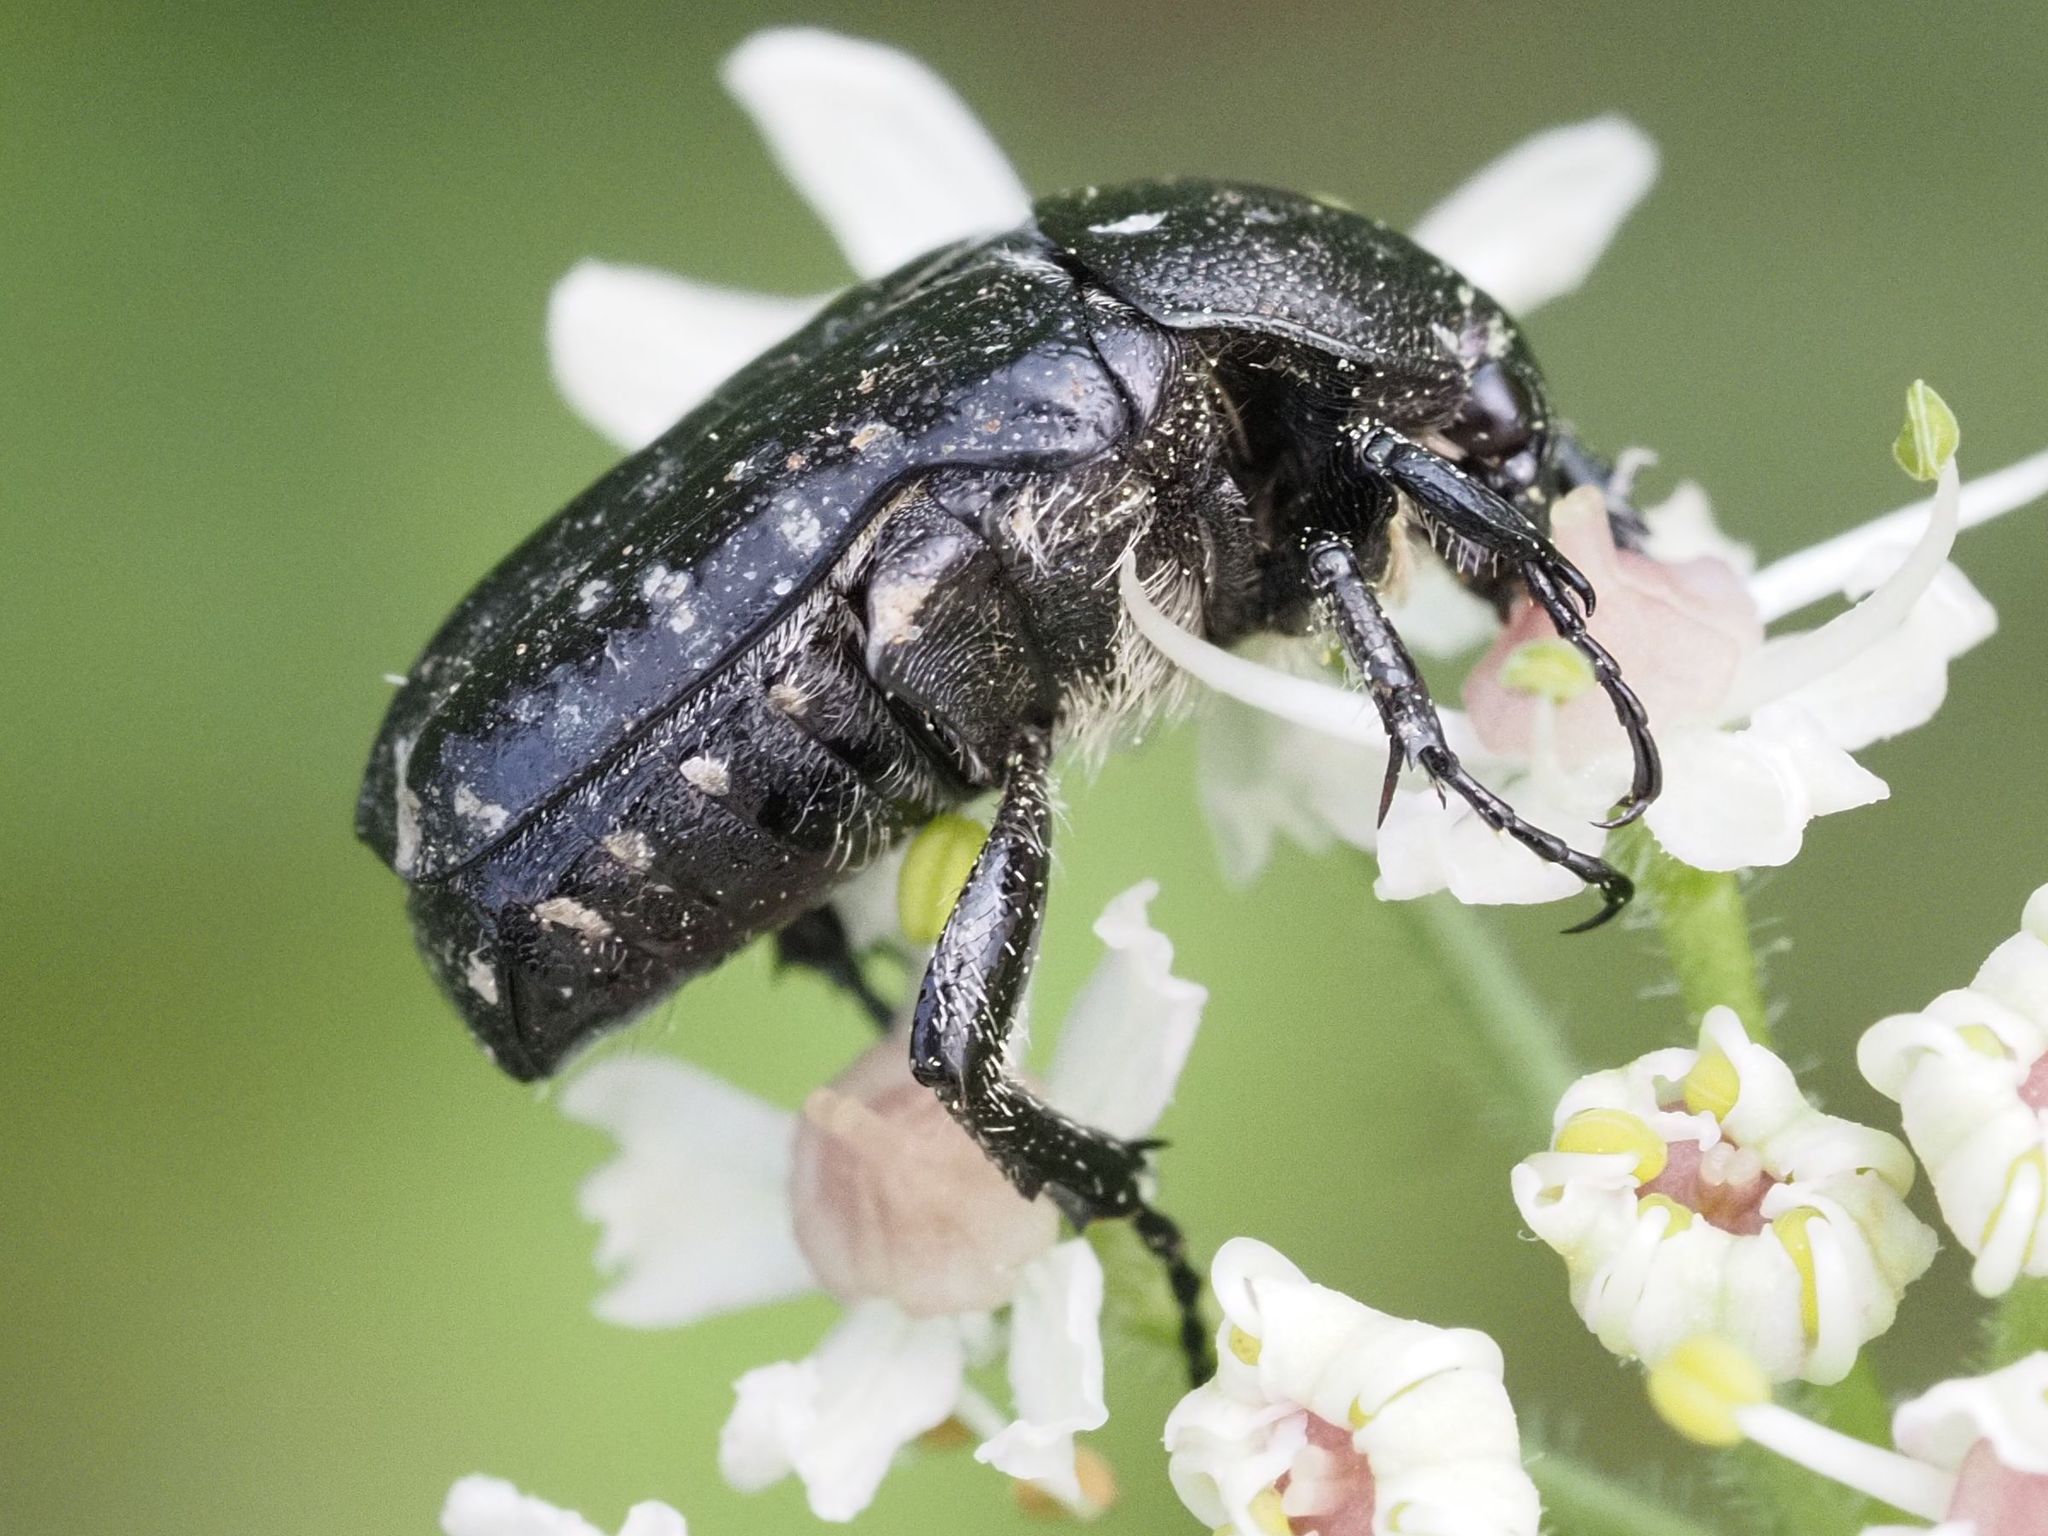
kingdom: Animalia
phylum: Arthropoda
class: Insecta
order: Coleoptera
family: Scarabaeidae
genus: Oxythyrea
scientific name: Oxythyrea funesta
